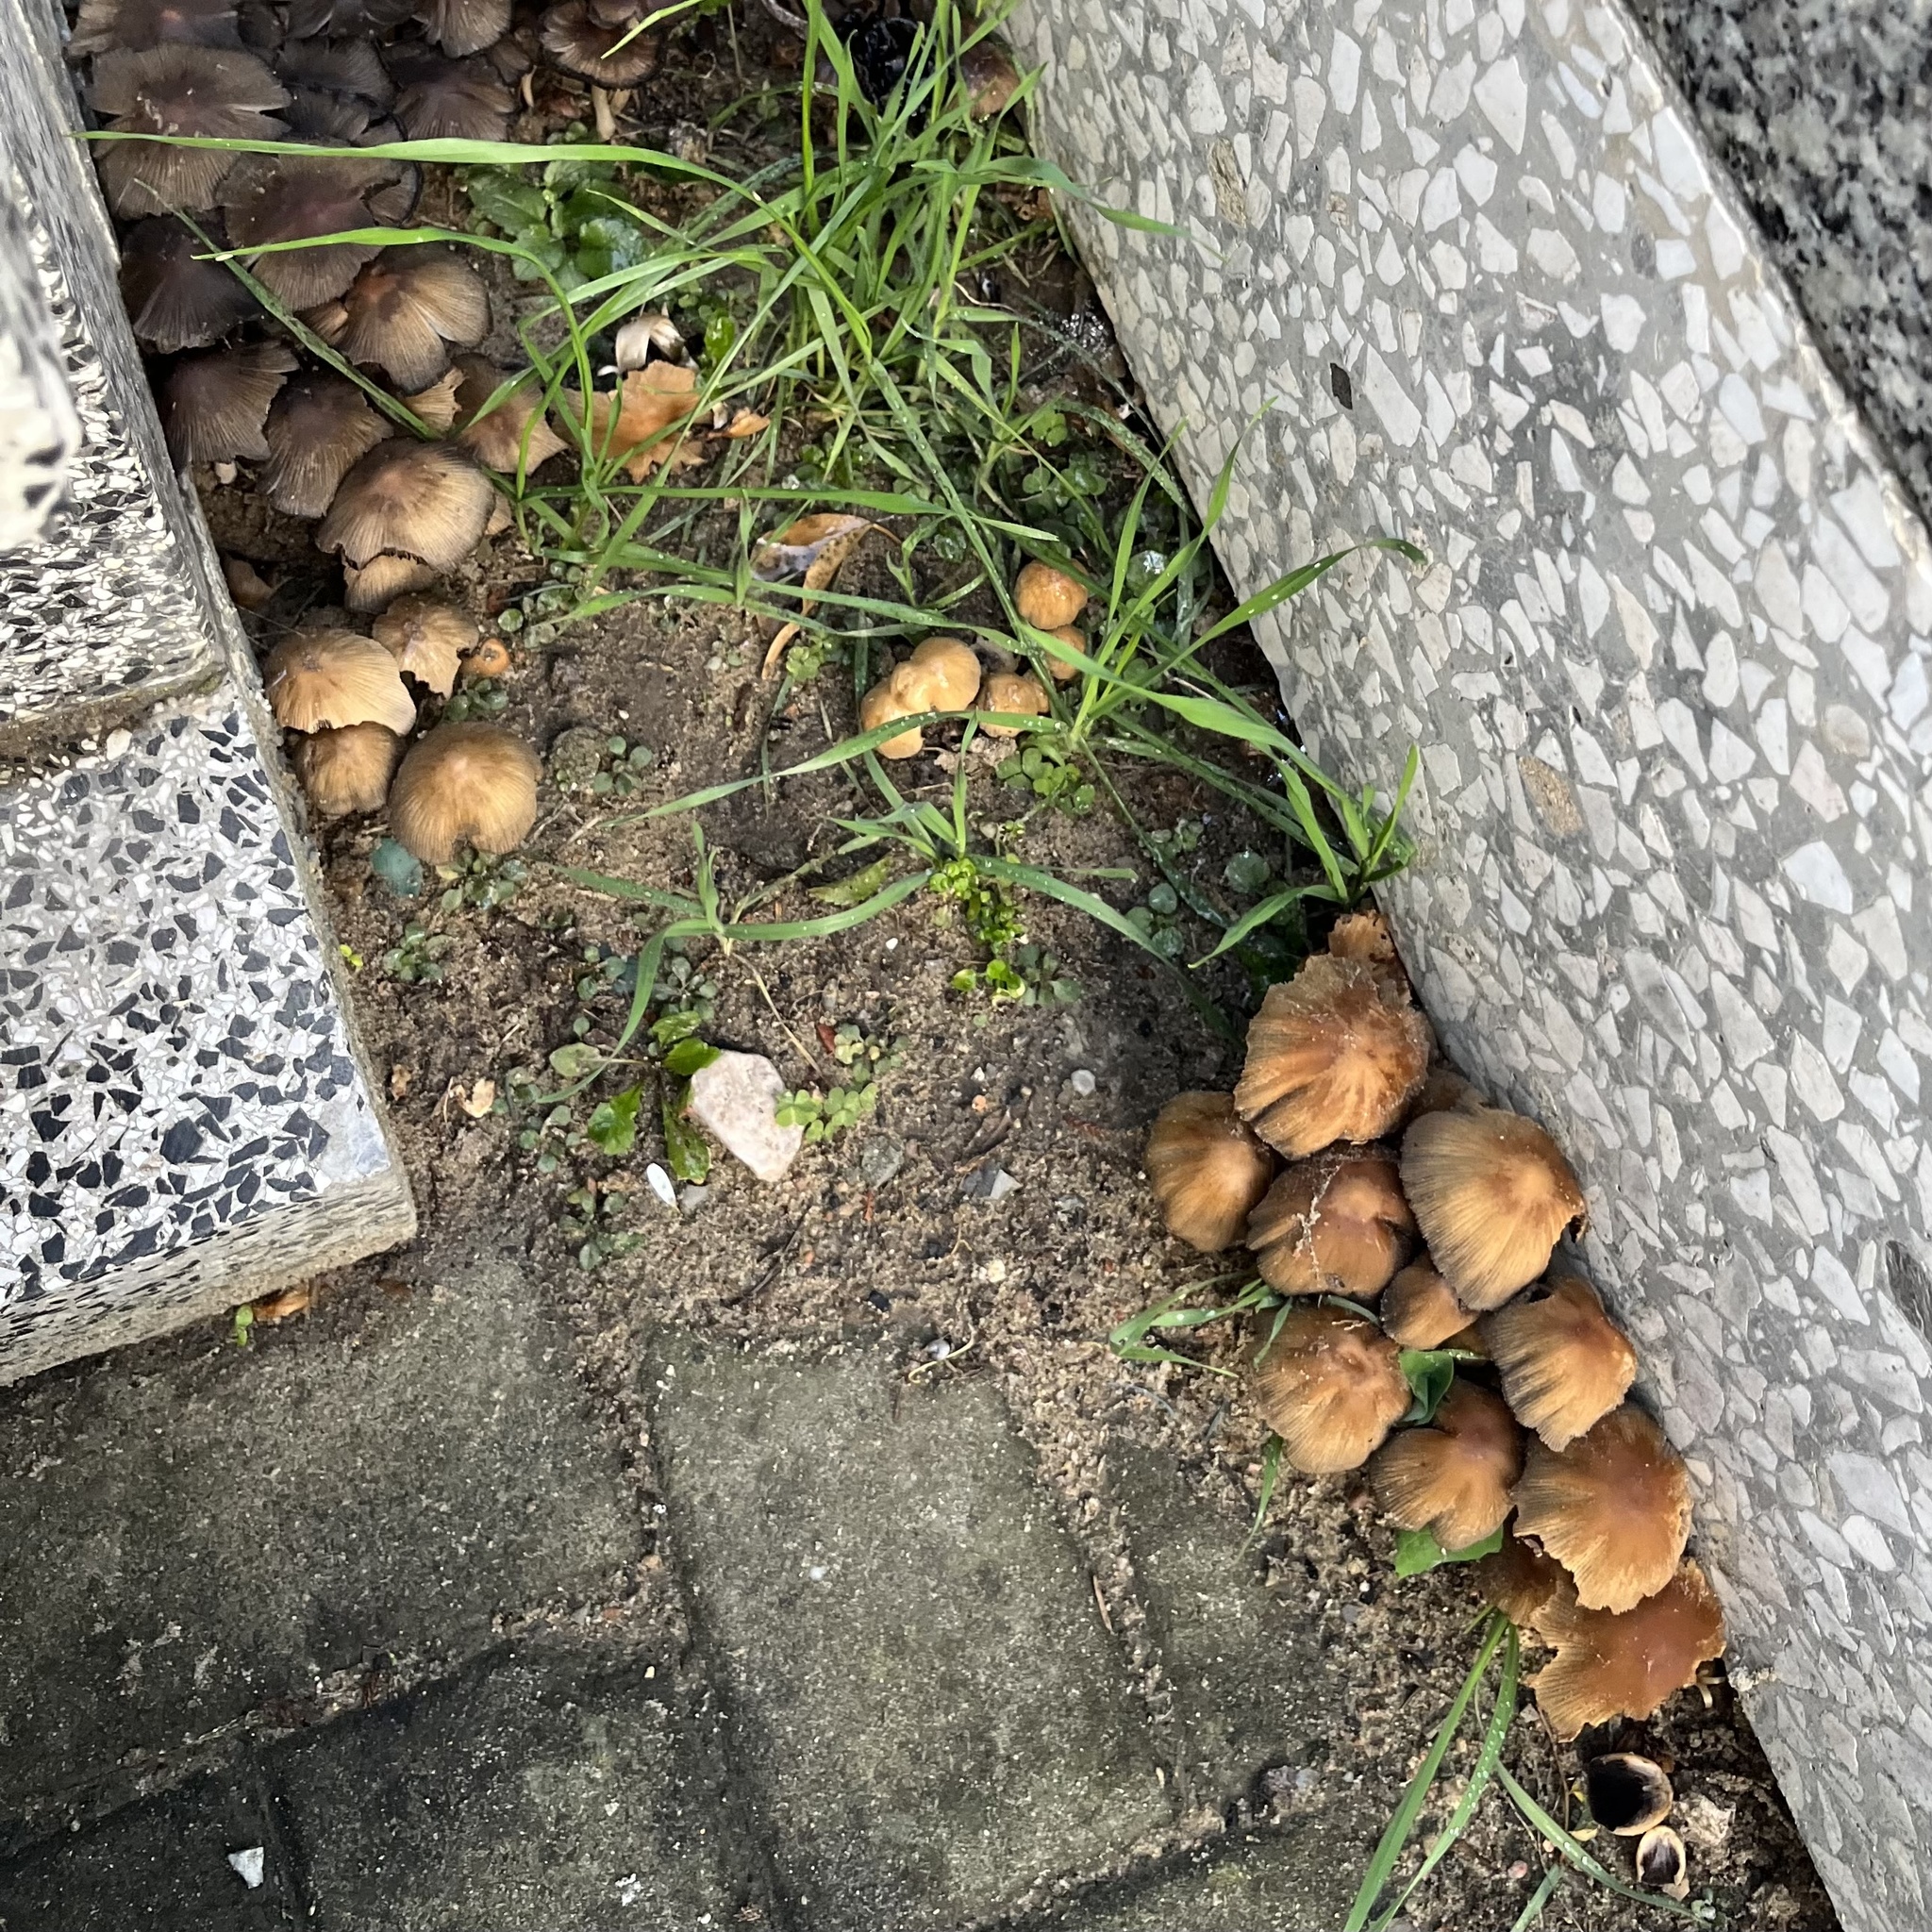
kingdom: Fungi
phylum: Basidiomycota
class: Agaricomycetes
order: Agaricales
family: Psathyrellaceae
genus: Coprinellus
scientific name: Coprinellus micaceus
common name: Glistening ink-cap
